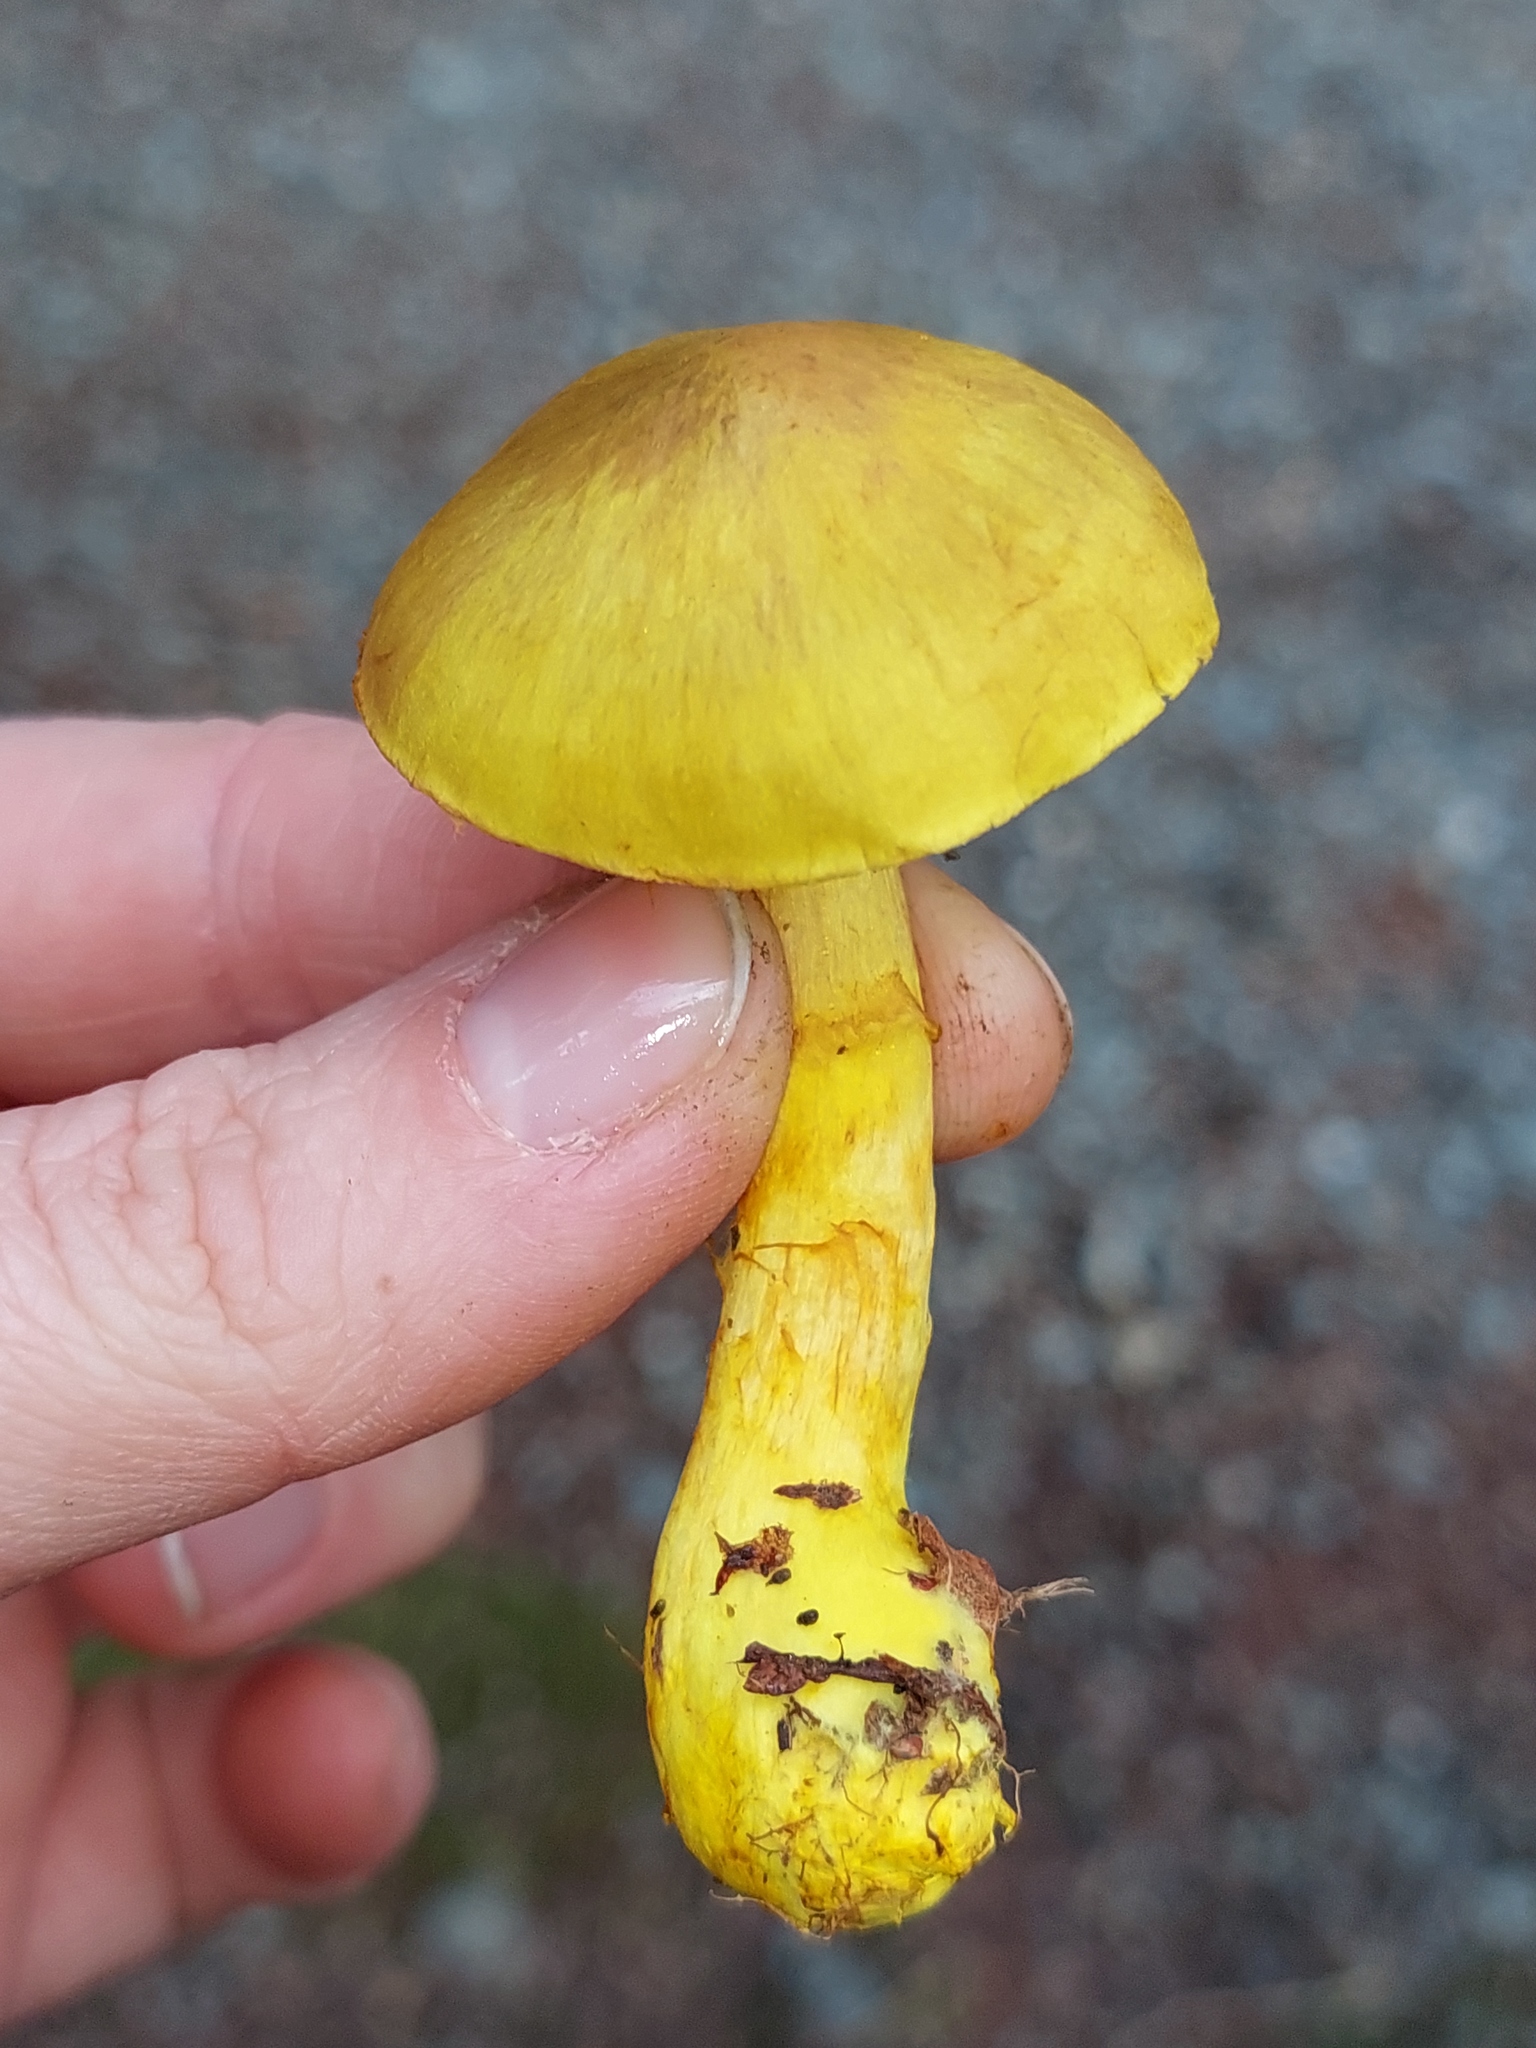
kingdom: Fungi
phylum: Basidiomycota
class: Agaricomycetes
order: Agaricales
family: Cortinariaceae
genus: Cortinarius
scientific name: Cortinarius canarius
